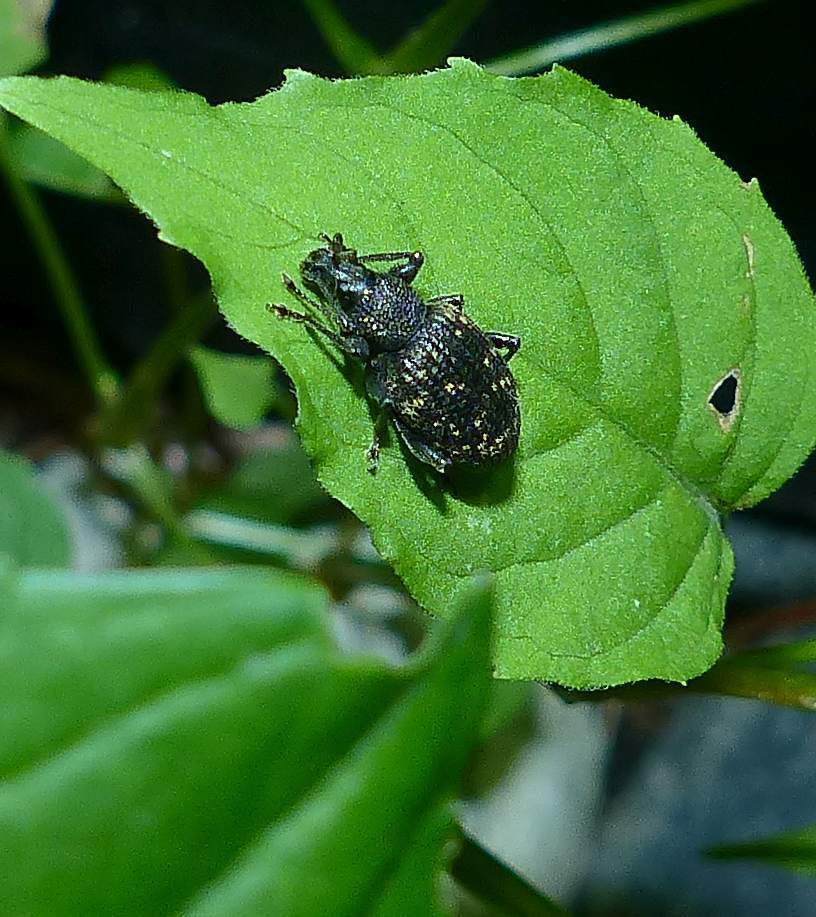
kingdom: Animalia
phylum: Arthropoda
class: Insecta
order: Coleoptera
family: Curculionidae
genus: Otiorhynchus
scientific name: Otiorhynchus sulcatus
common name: Black vine weevil
